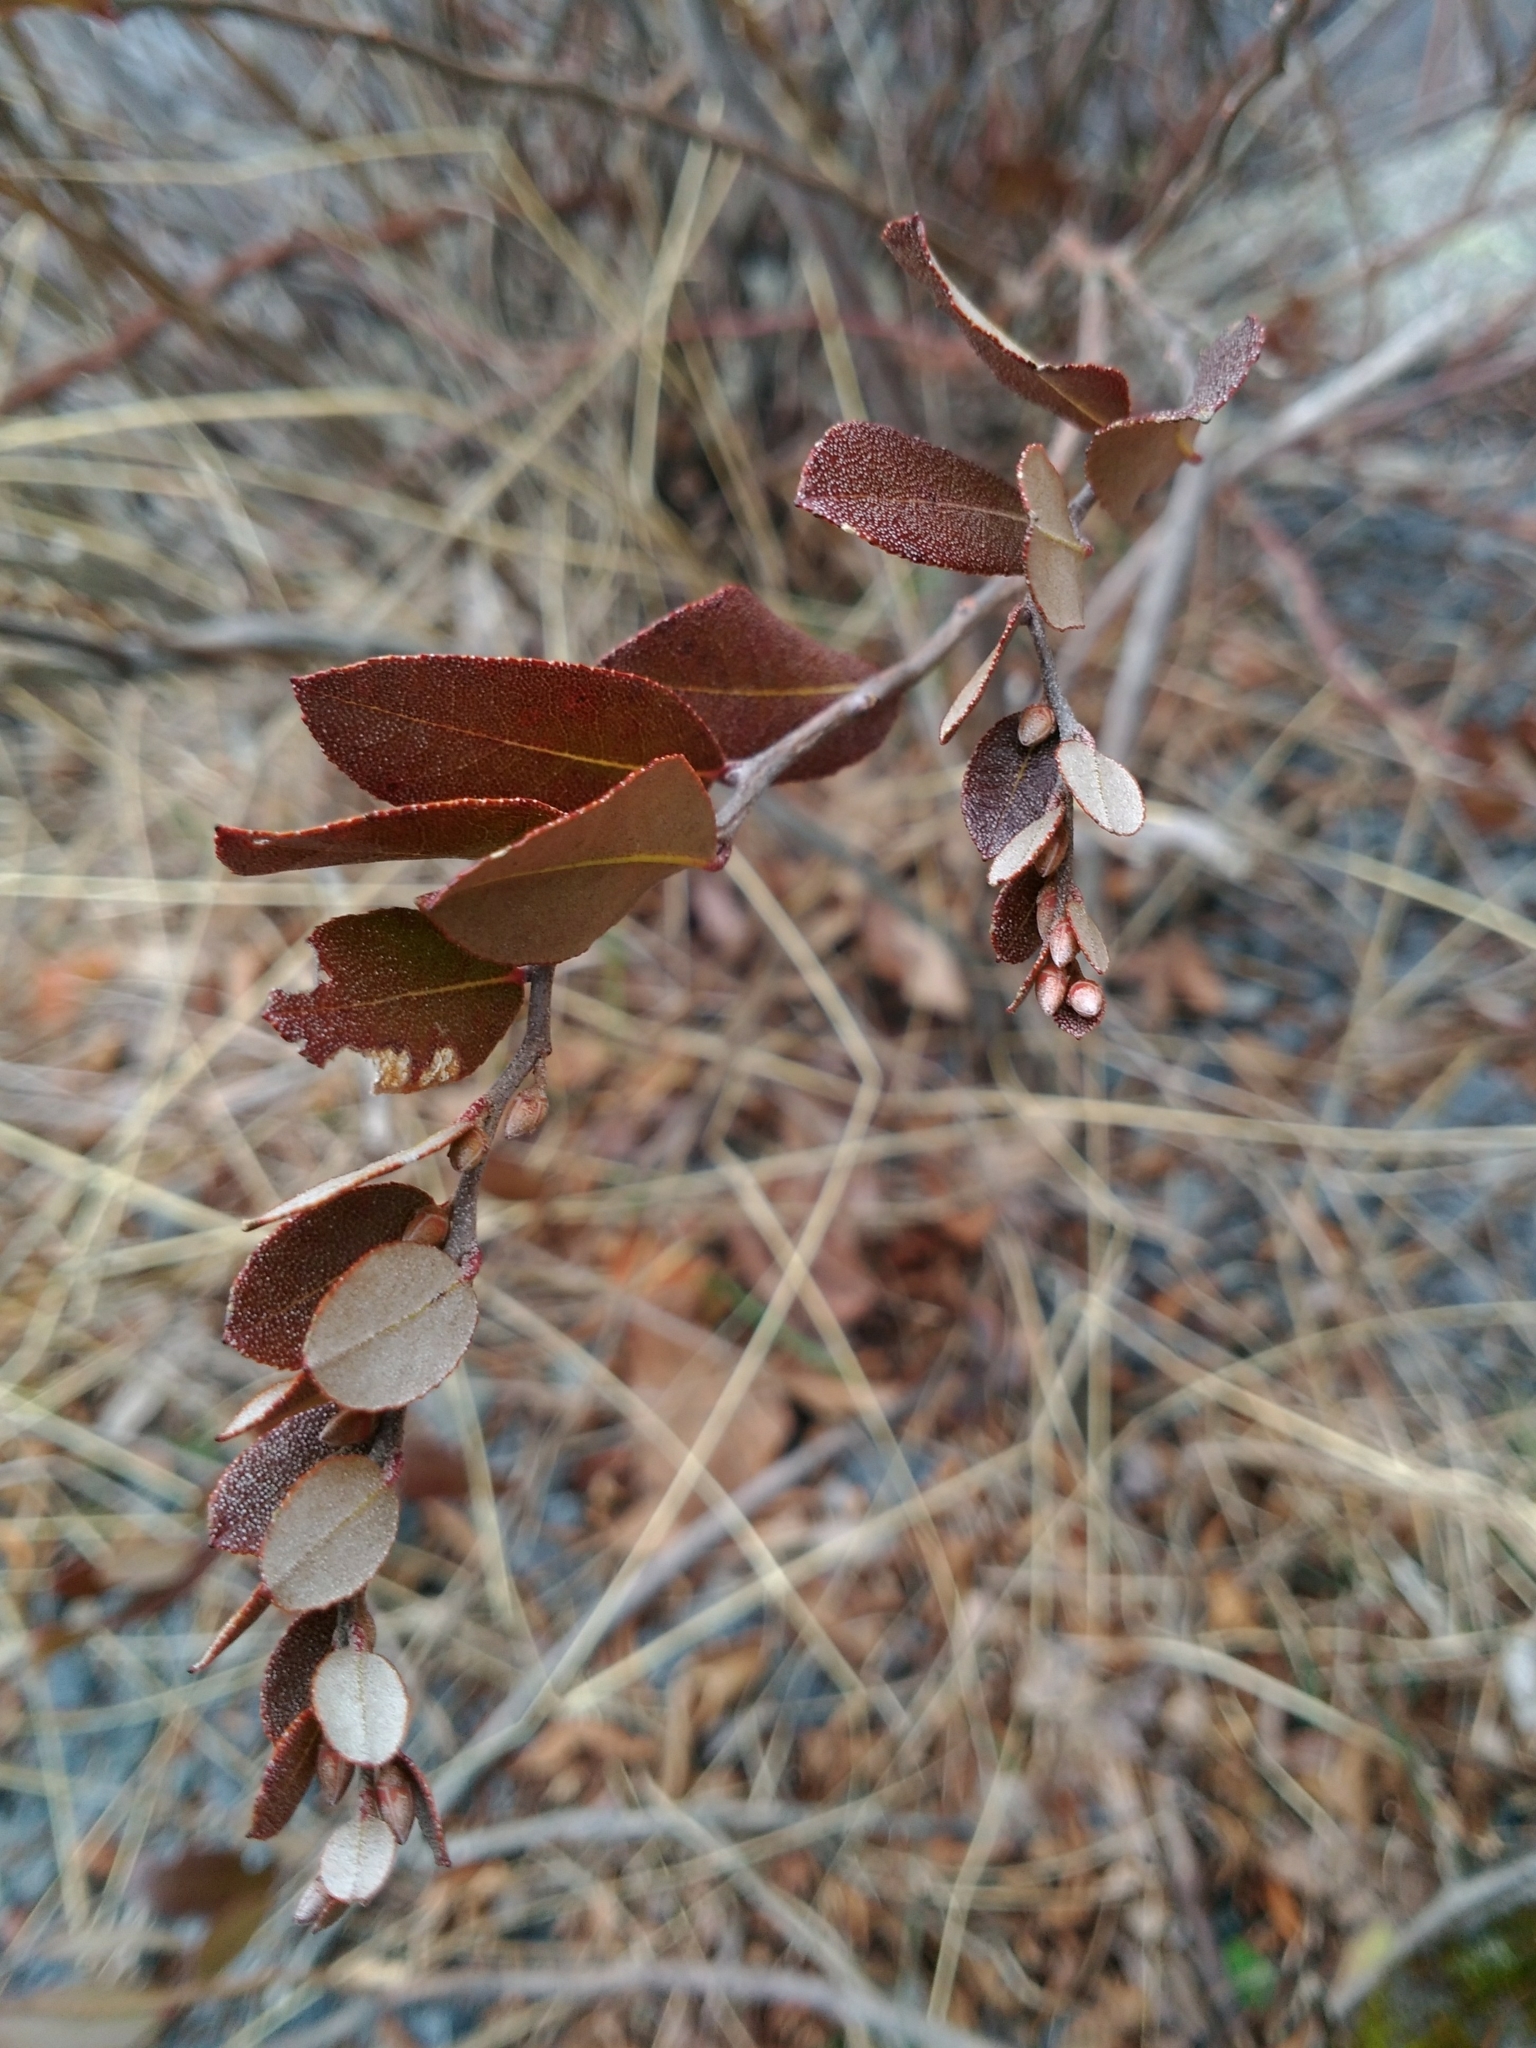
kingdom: Plantae
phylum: Tracheophyta
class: Magnoliopsida
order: Ericales
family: Ericaceae
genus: Chamaedaphne
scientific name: Chamaedaphne calyculata
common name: Leatherleaf
